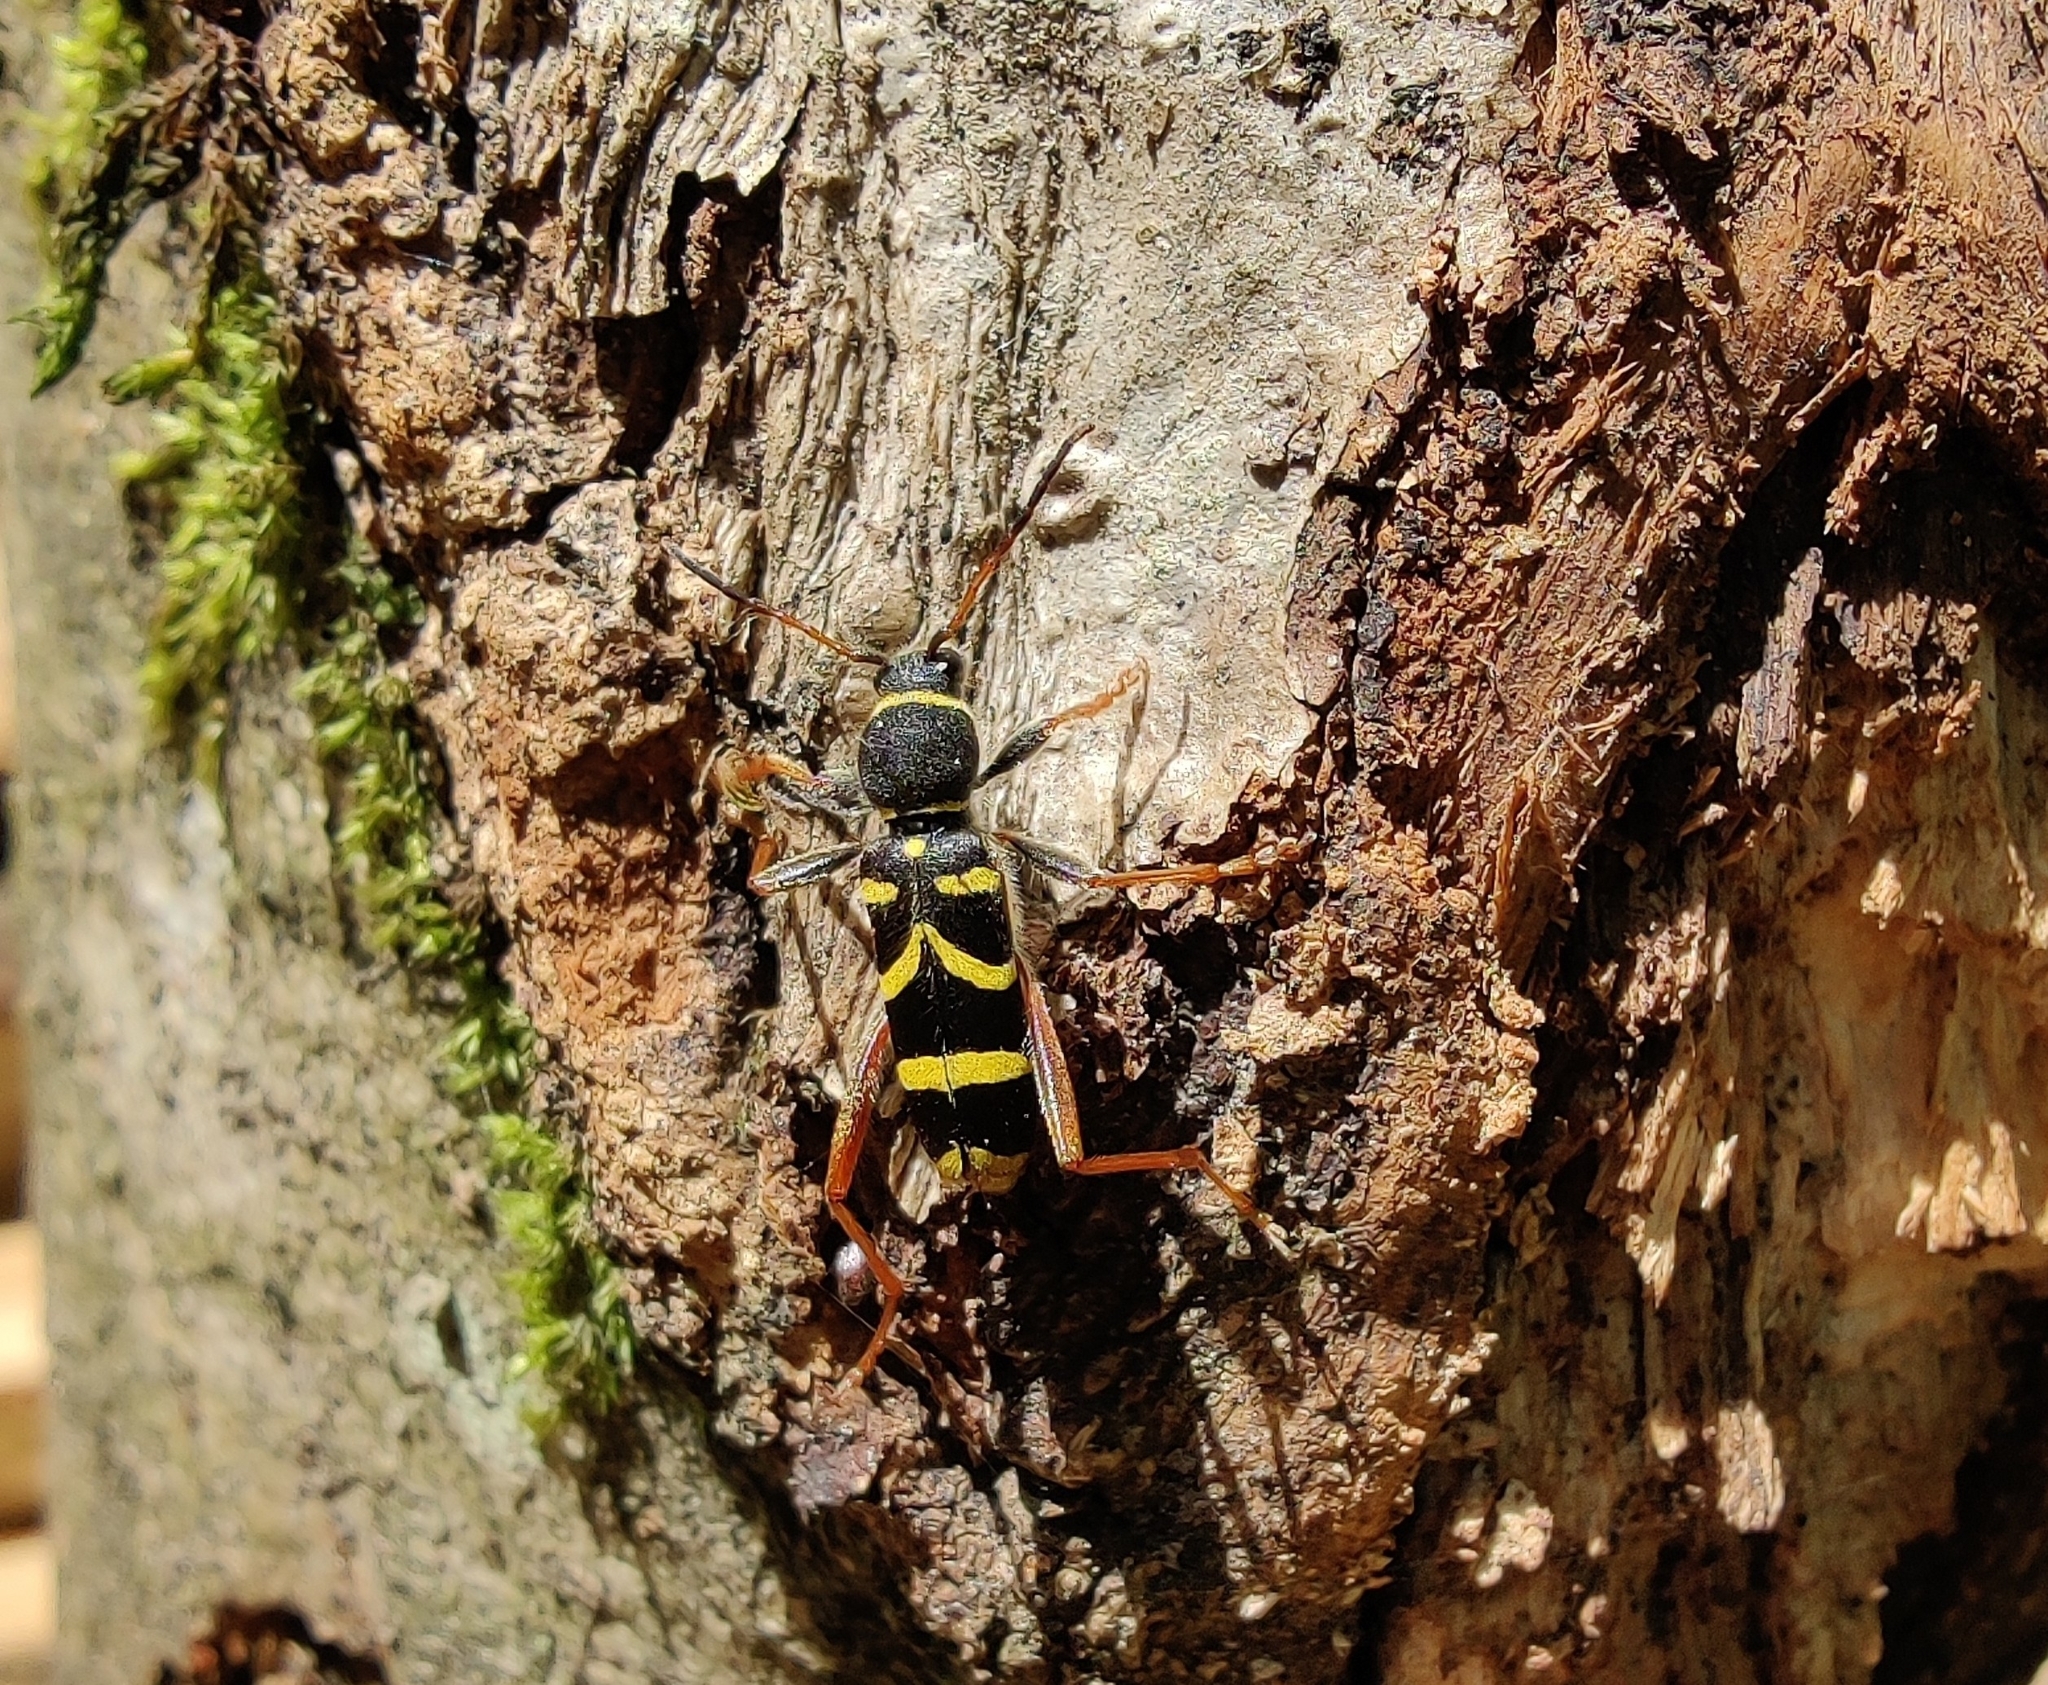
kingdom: Animalia
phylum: Arthropoda
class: Insecta
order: Coleoptera
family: Cerambycidae
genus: Clytus
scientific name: Clytus arietis
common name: Wasp beetle
